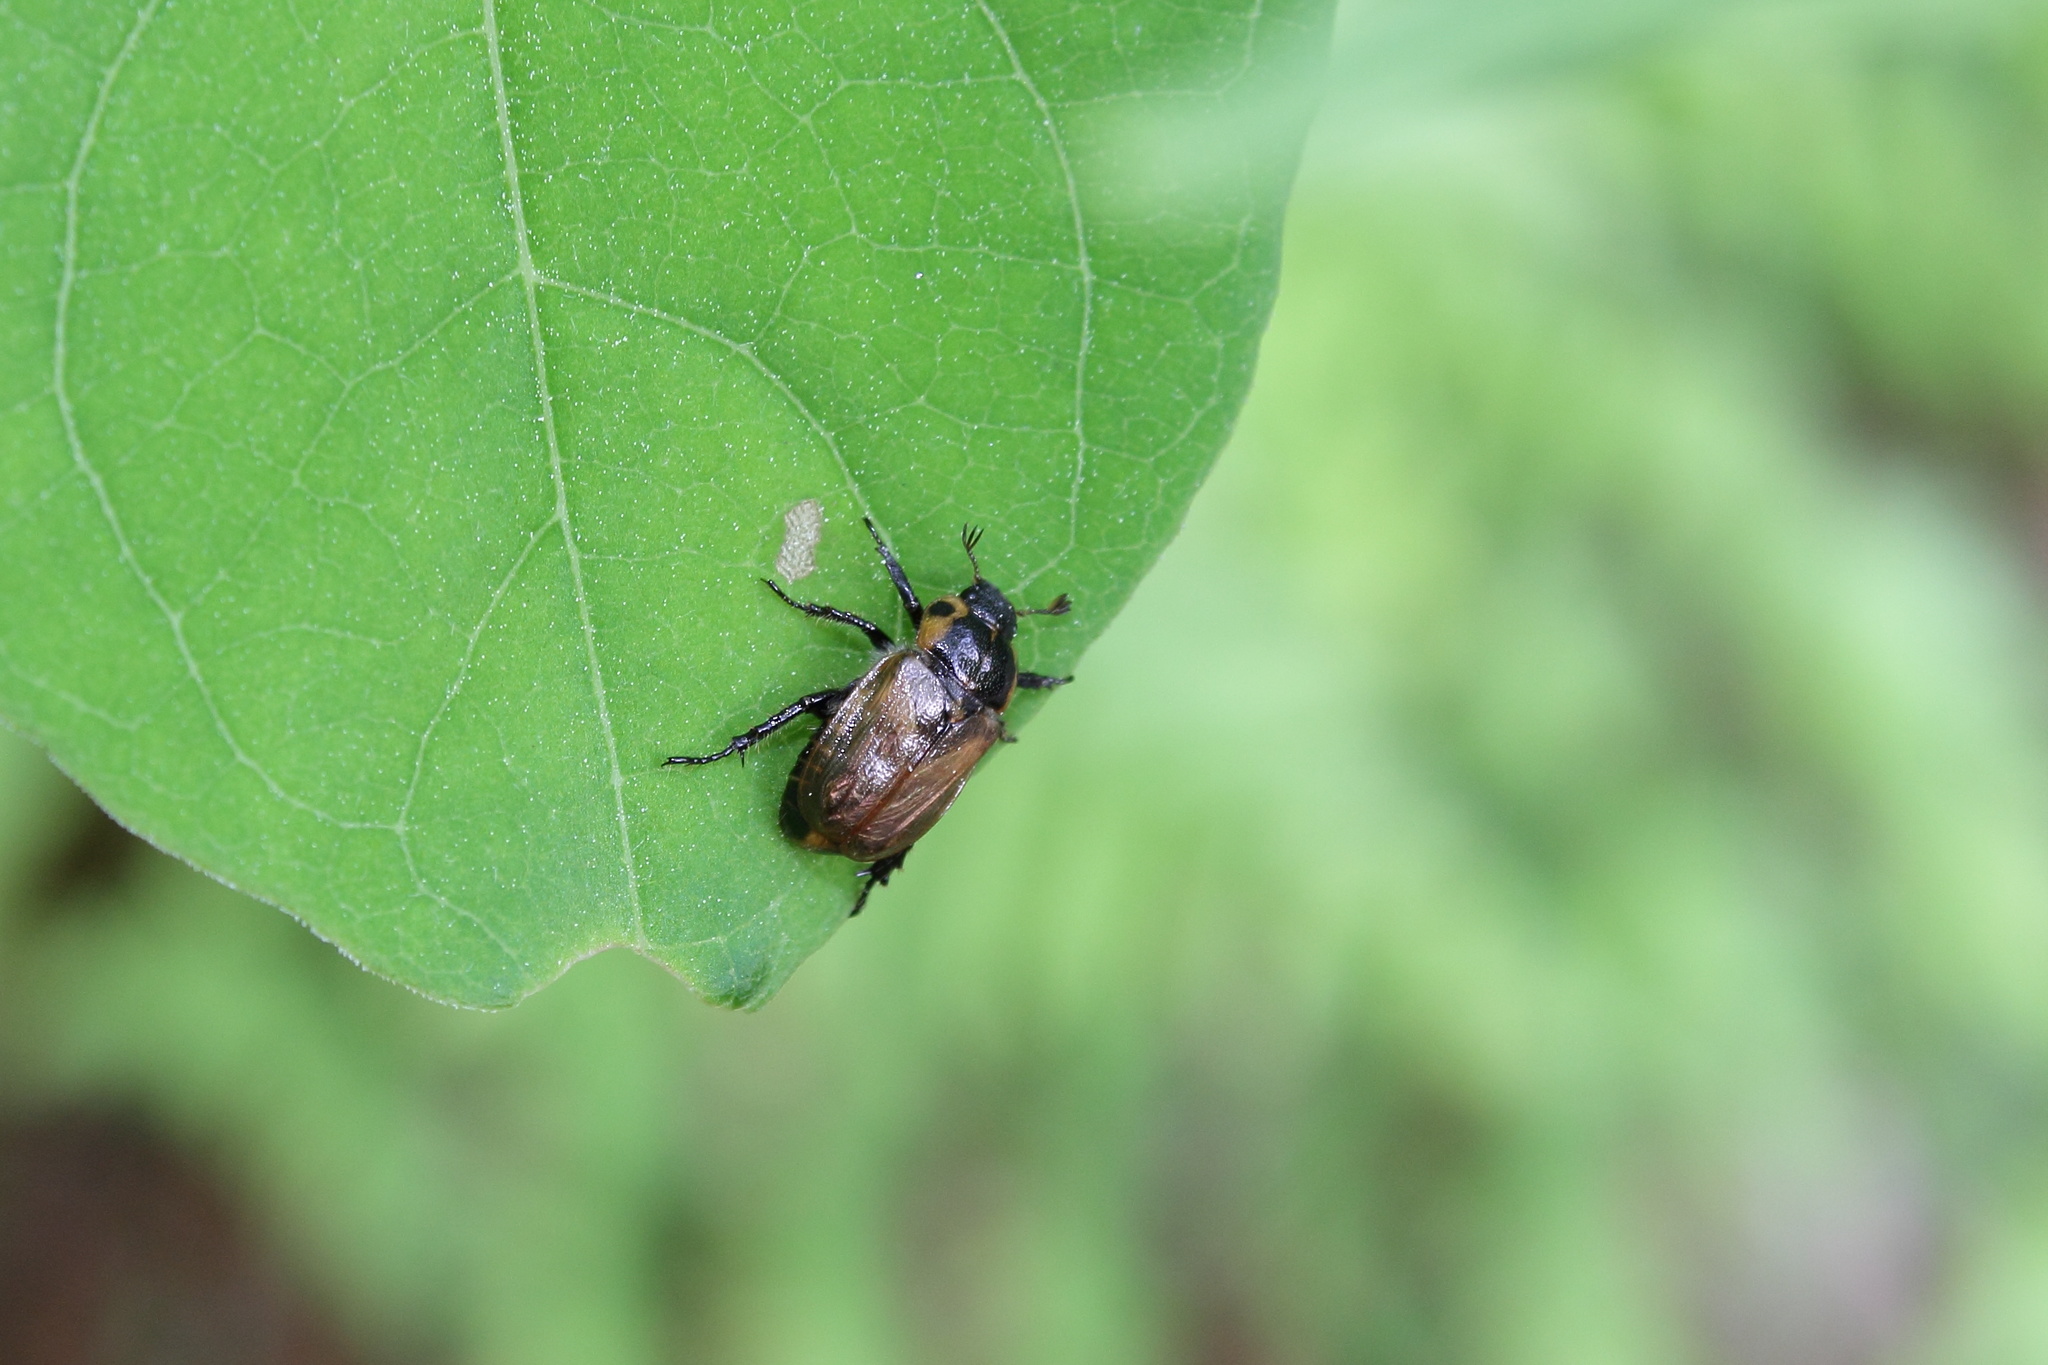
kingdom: Animalia
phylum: Arthropoda
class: Insecta
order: Coleoptera
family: Scarabaeidae
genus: Phyllopertha
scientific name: Phyllopertha diversa
